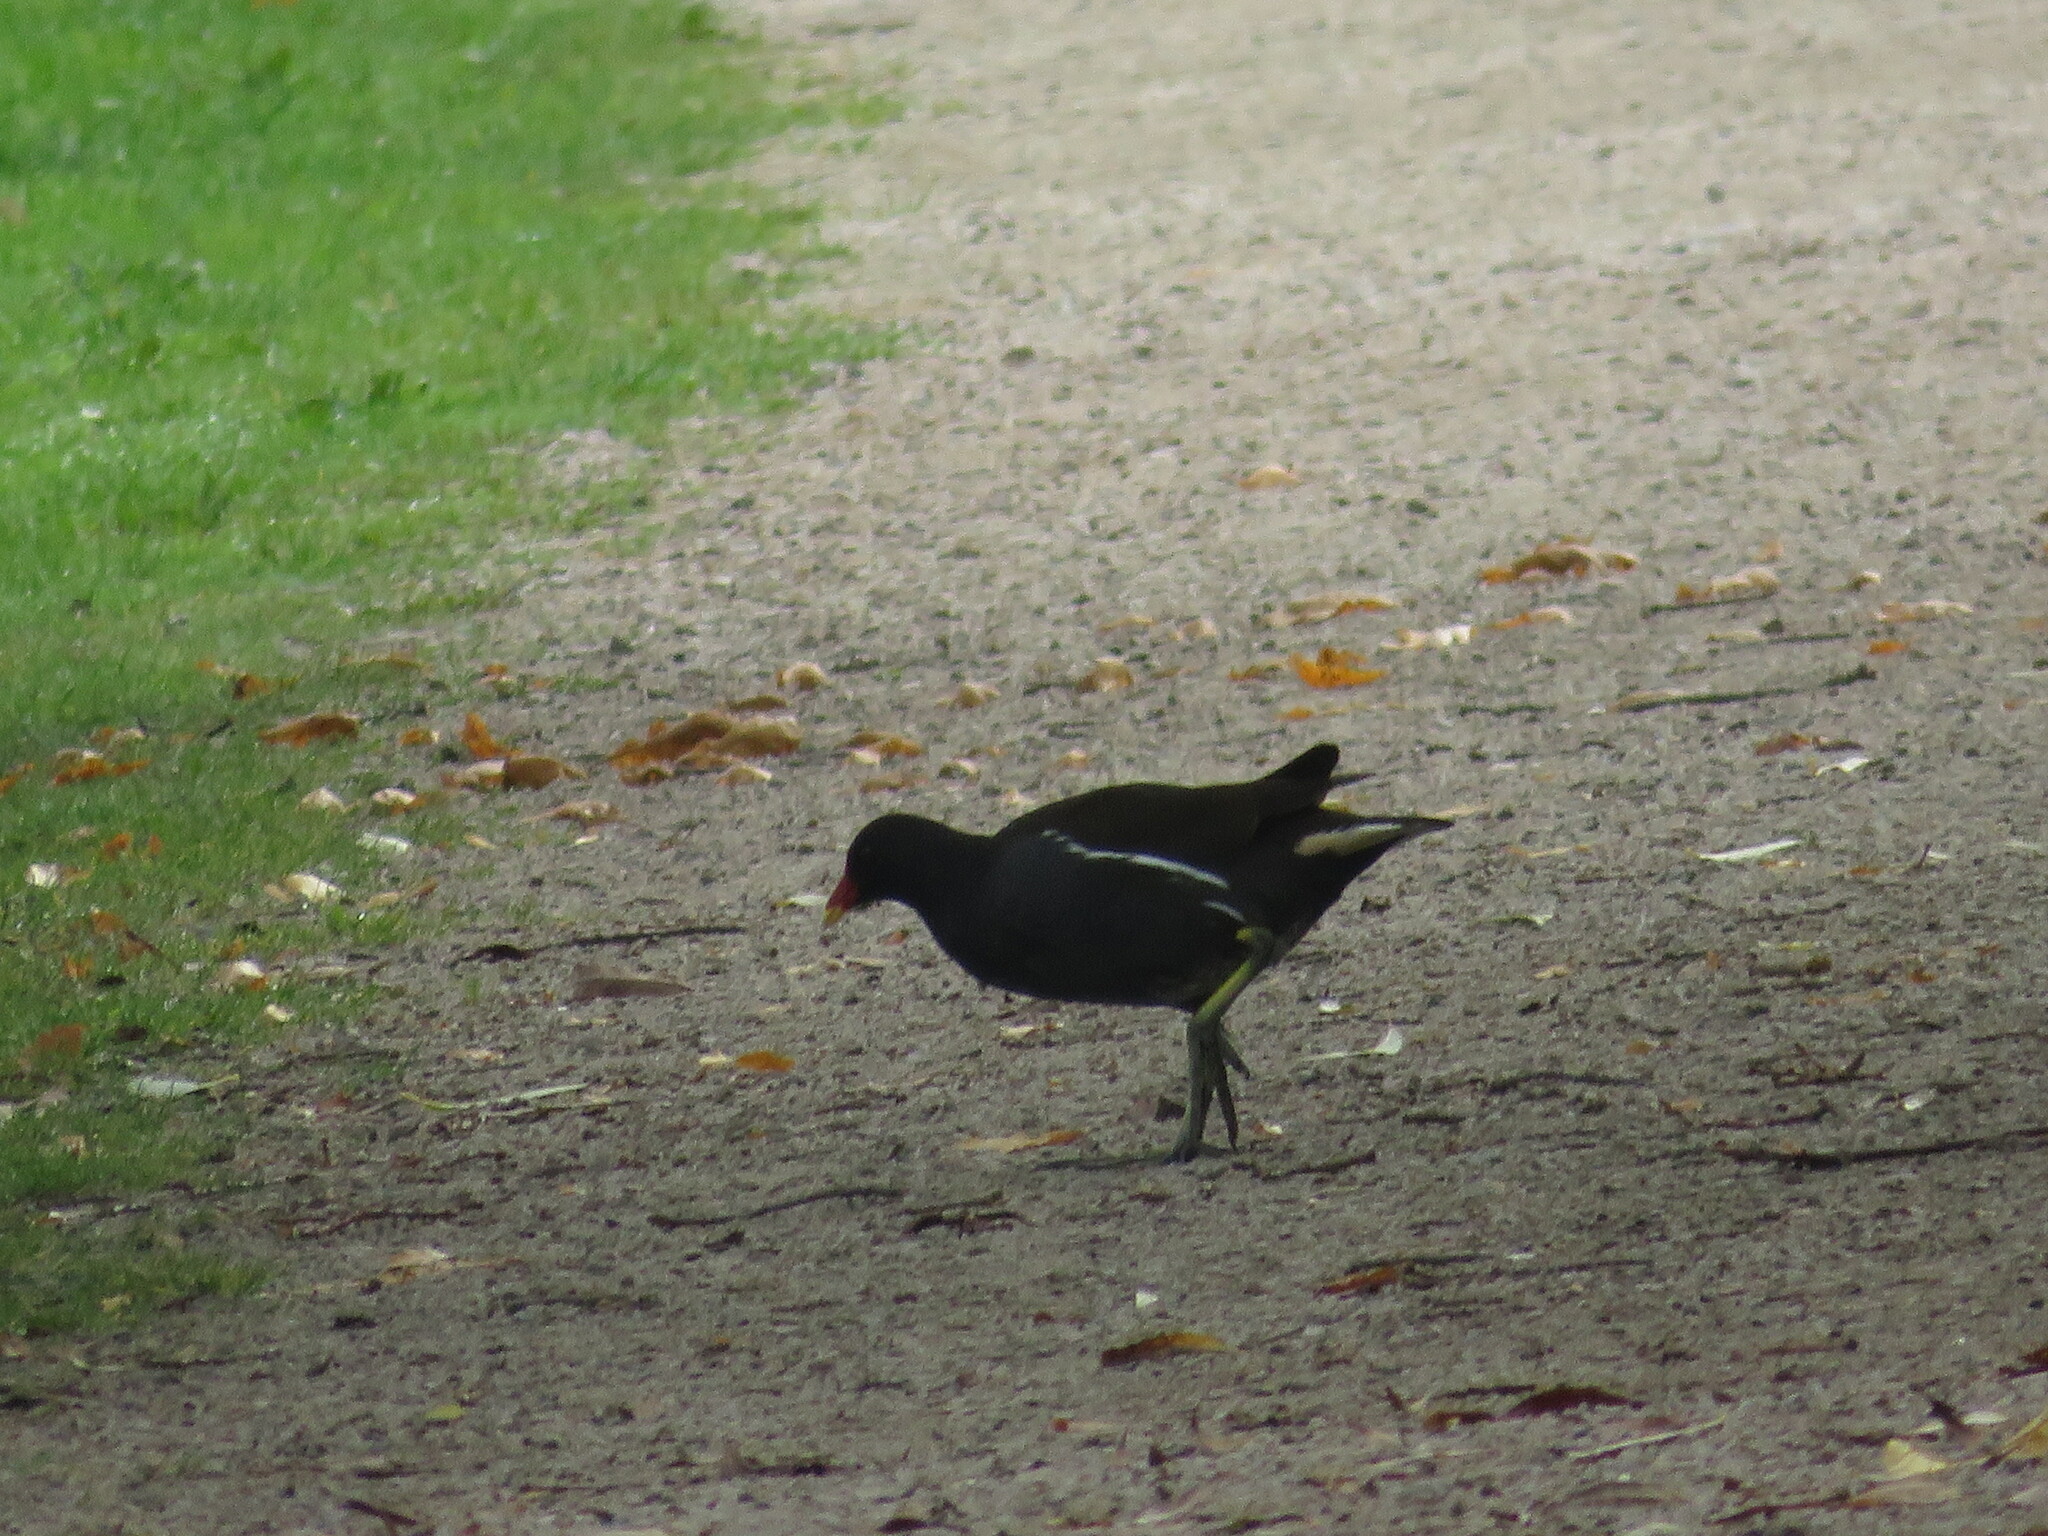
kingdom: Animalia
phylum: Chordata
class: Aves
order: Gruiformes
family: Rallidae
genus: Gallinula
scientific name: Gallinula chloropus
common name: Common moorhen
